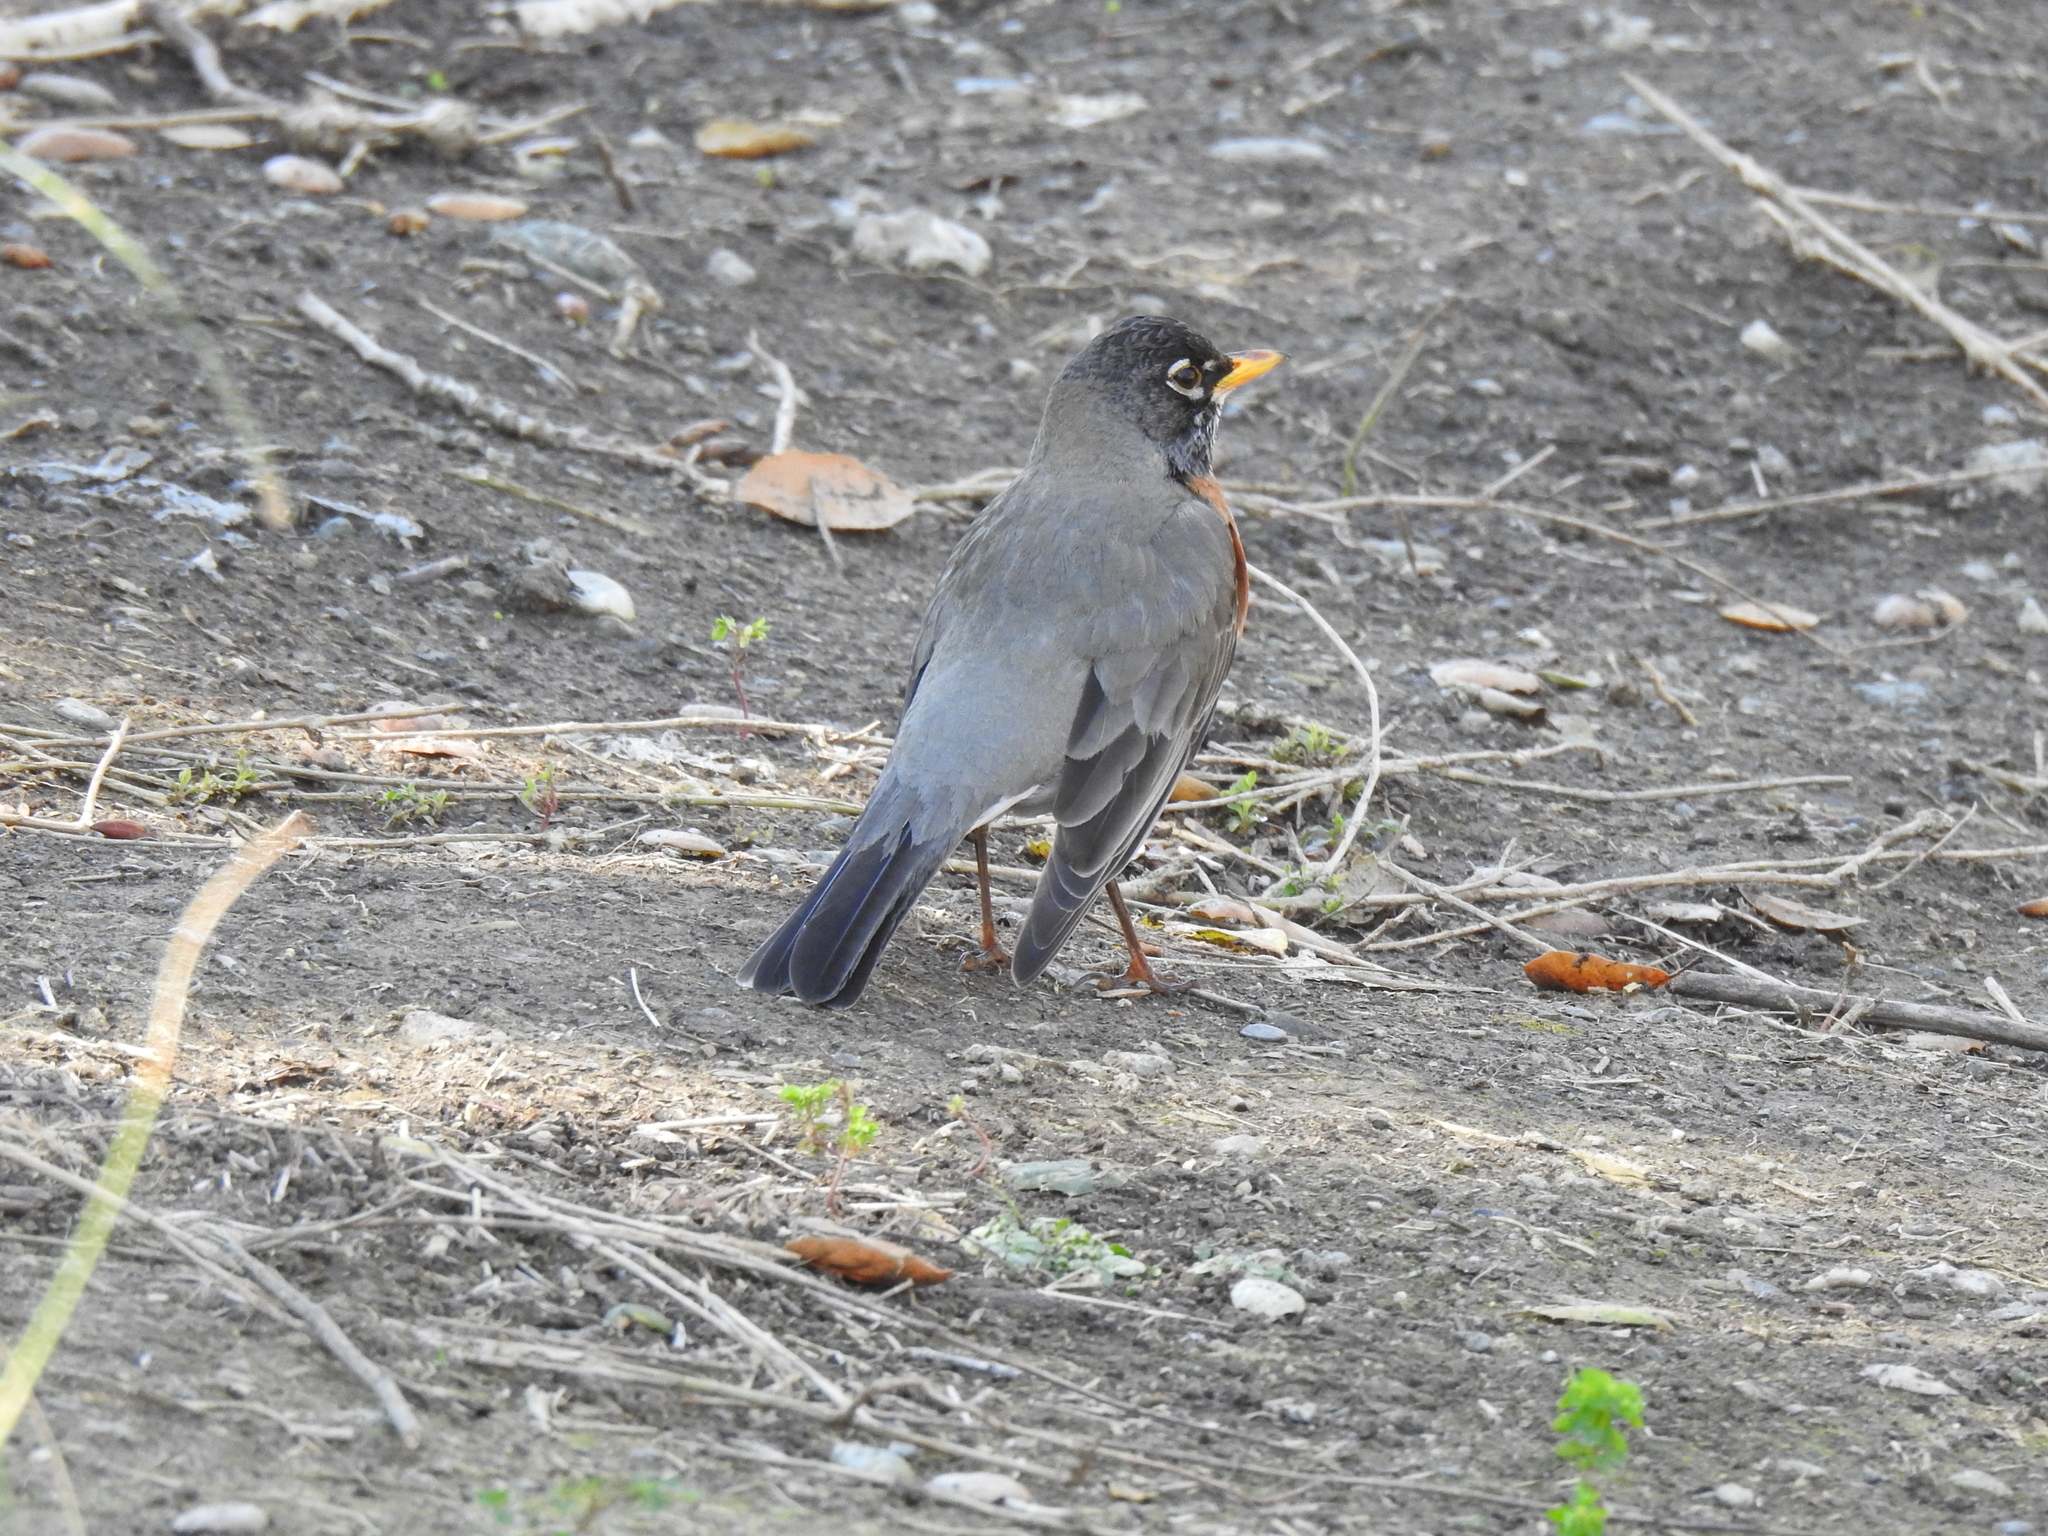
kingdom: Animalia
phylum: Chordata
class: Aves
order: Passeriformes
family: Turdidae
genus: Turdus
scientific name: Turdus migratorius
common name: American robin
